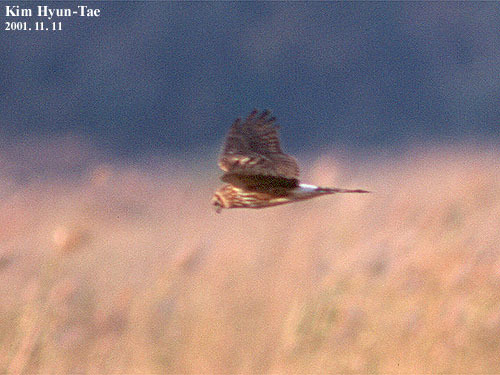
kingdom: Animalia
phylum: Chordata
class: Aves
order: Accipitriformes
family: Accipitridae
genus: Circus
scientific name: Circus cyaneus
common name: Hen harrier
